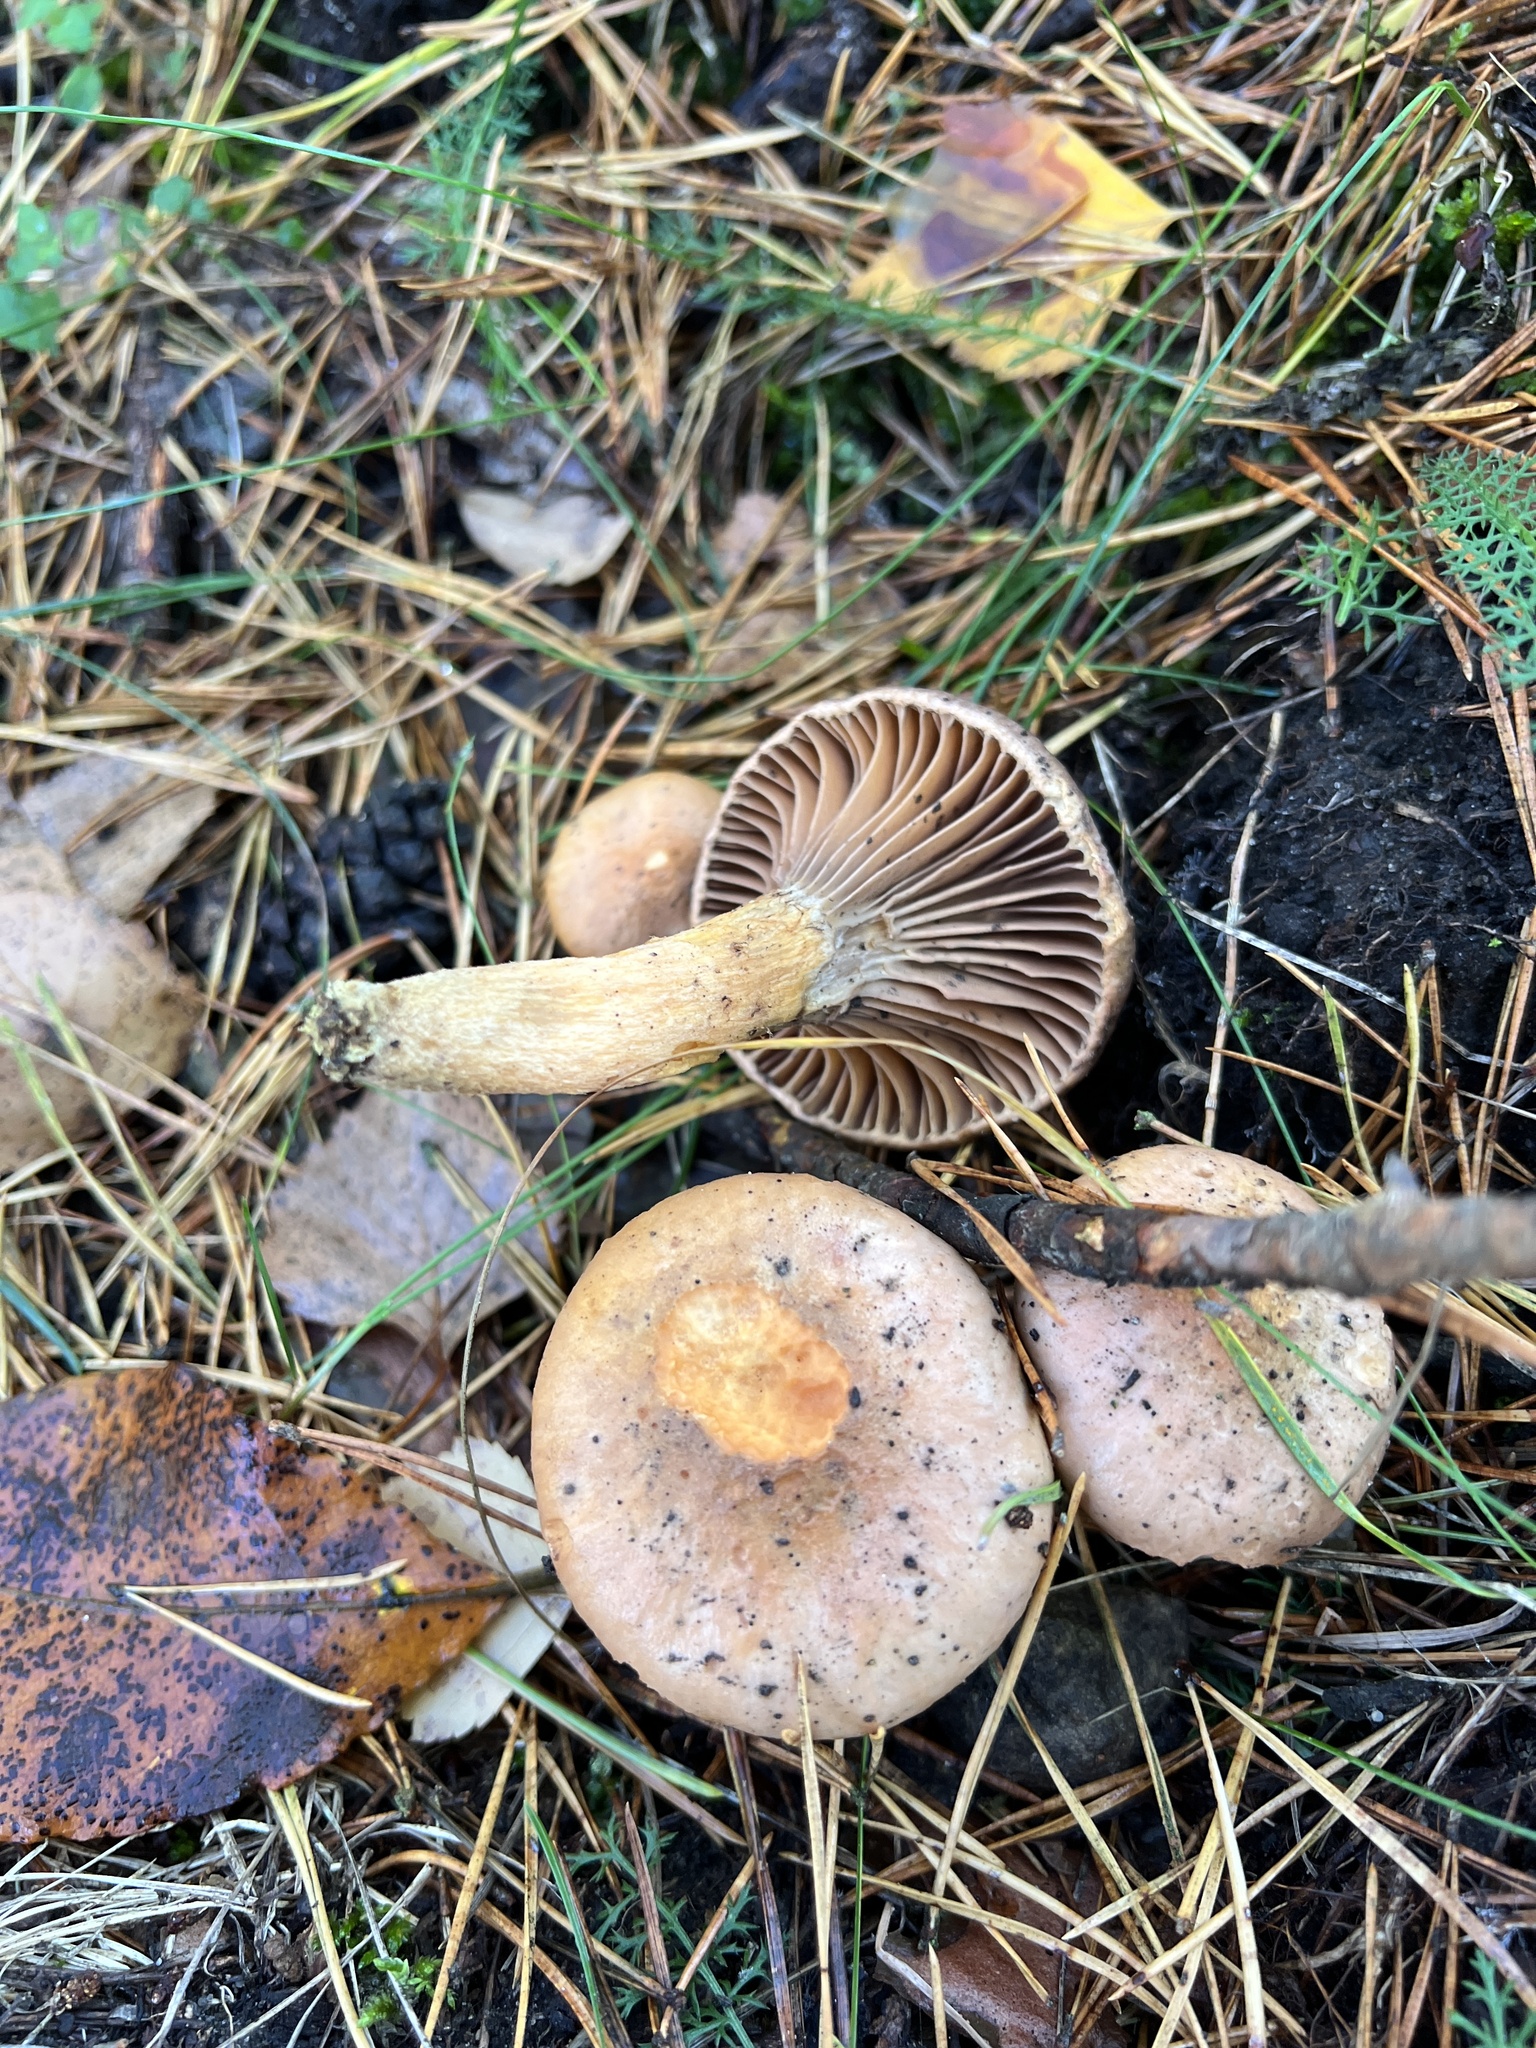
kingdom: Fungi
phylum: Basidiomycota
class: Agaricomycetes
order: Boletales
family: Gomphidiaceae
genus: Chroogomphus
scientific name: Chroogomphus rutilus
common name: Copper spike
